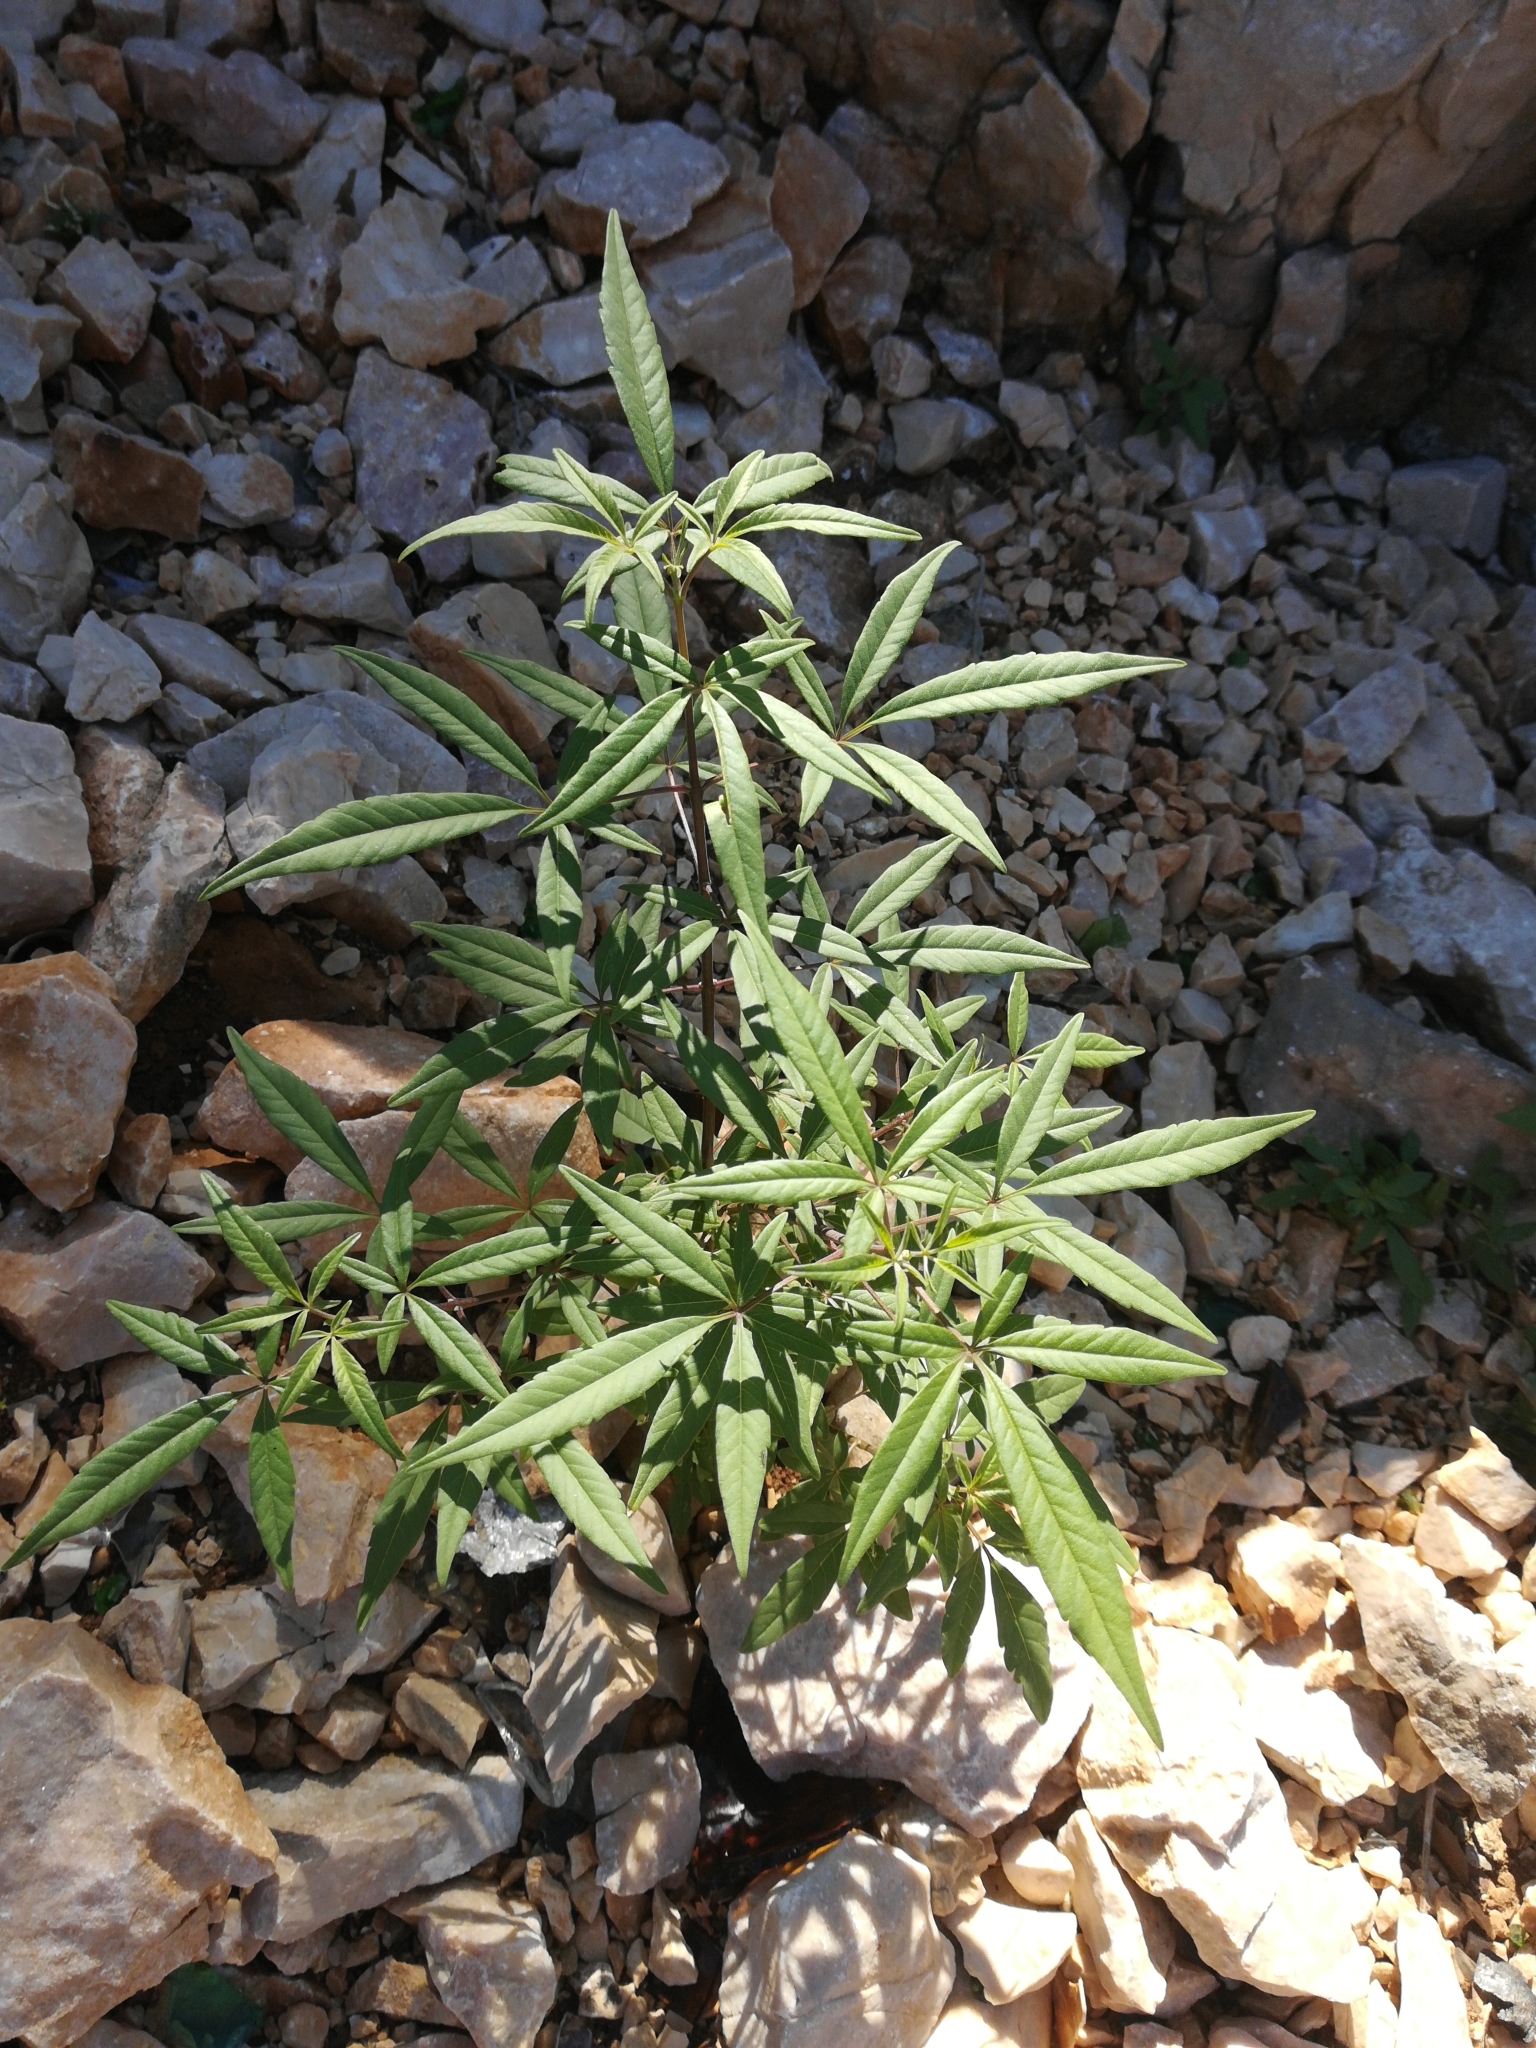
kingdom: Plantae
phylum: Tracheophyta
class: Magnoliopsida
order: Lamiales
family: Lamiaceae
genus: Vitex
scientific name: Vitex agnus-castus
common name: Chasteberry
